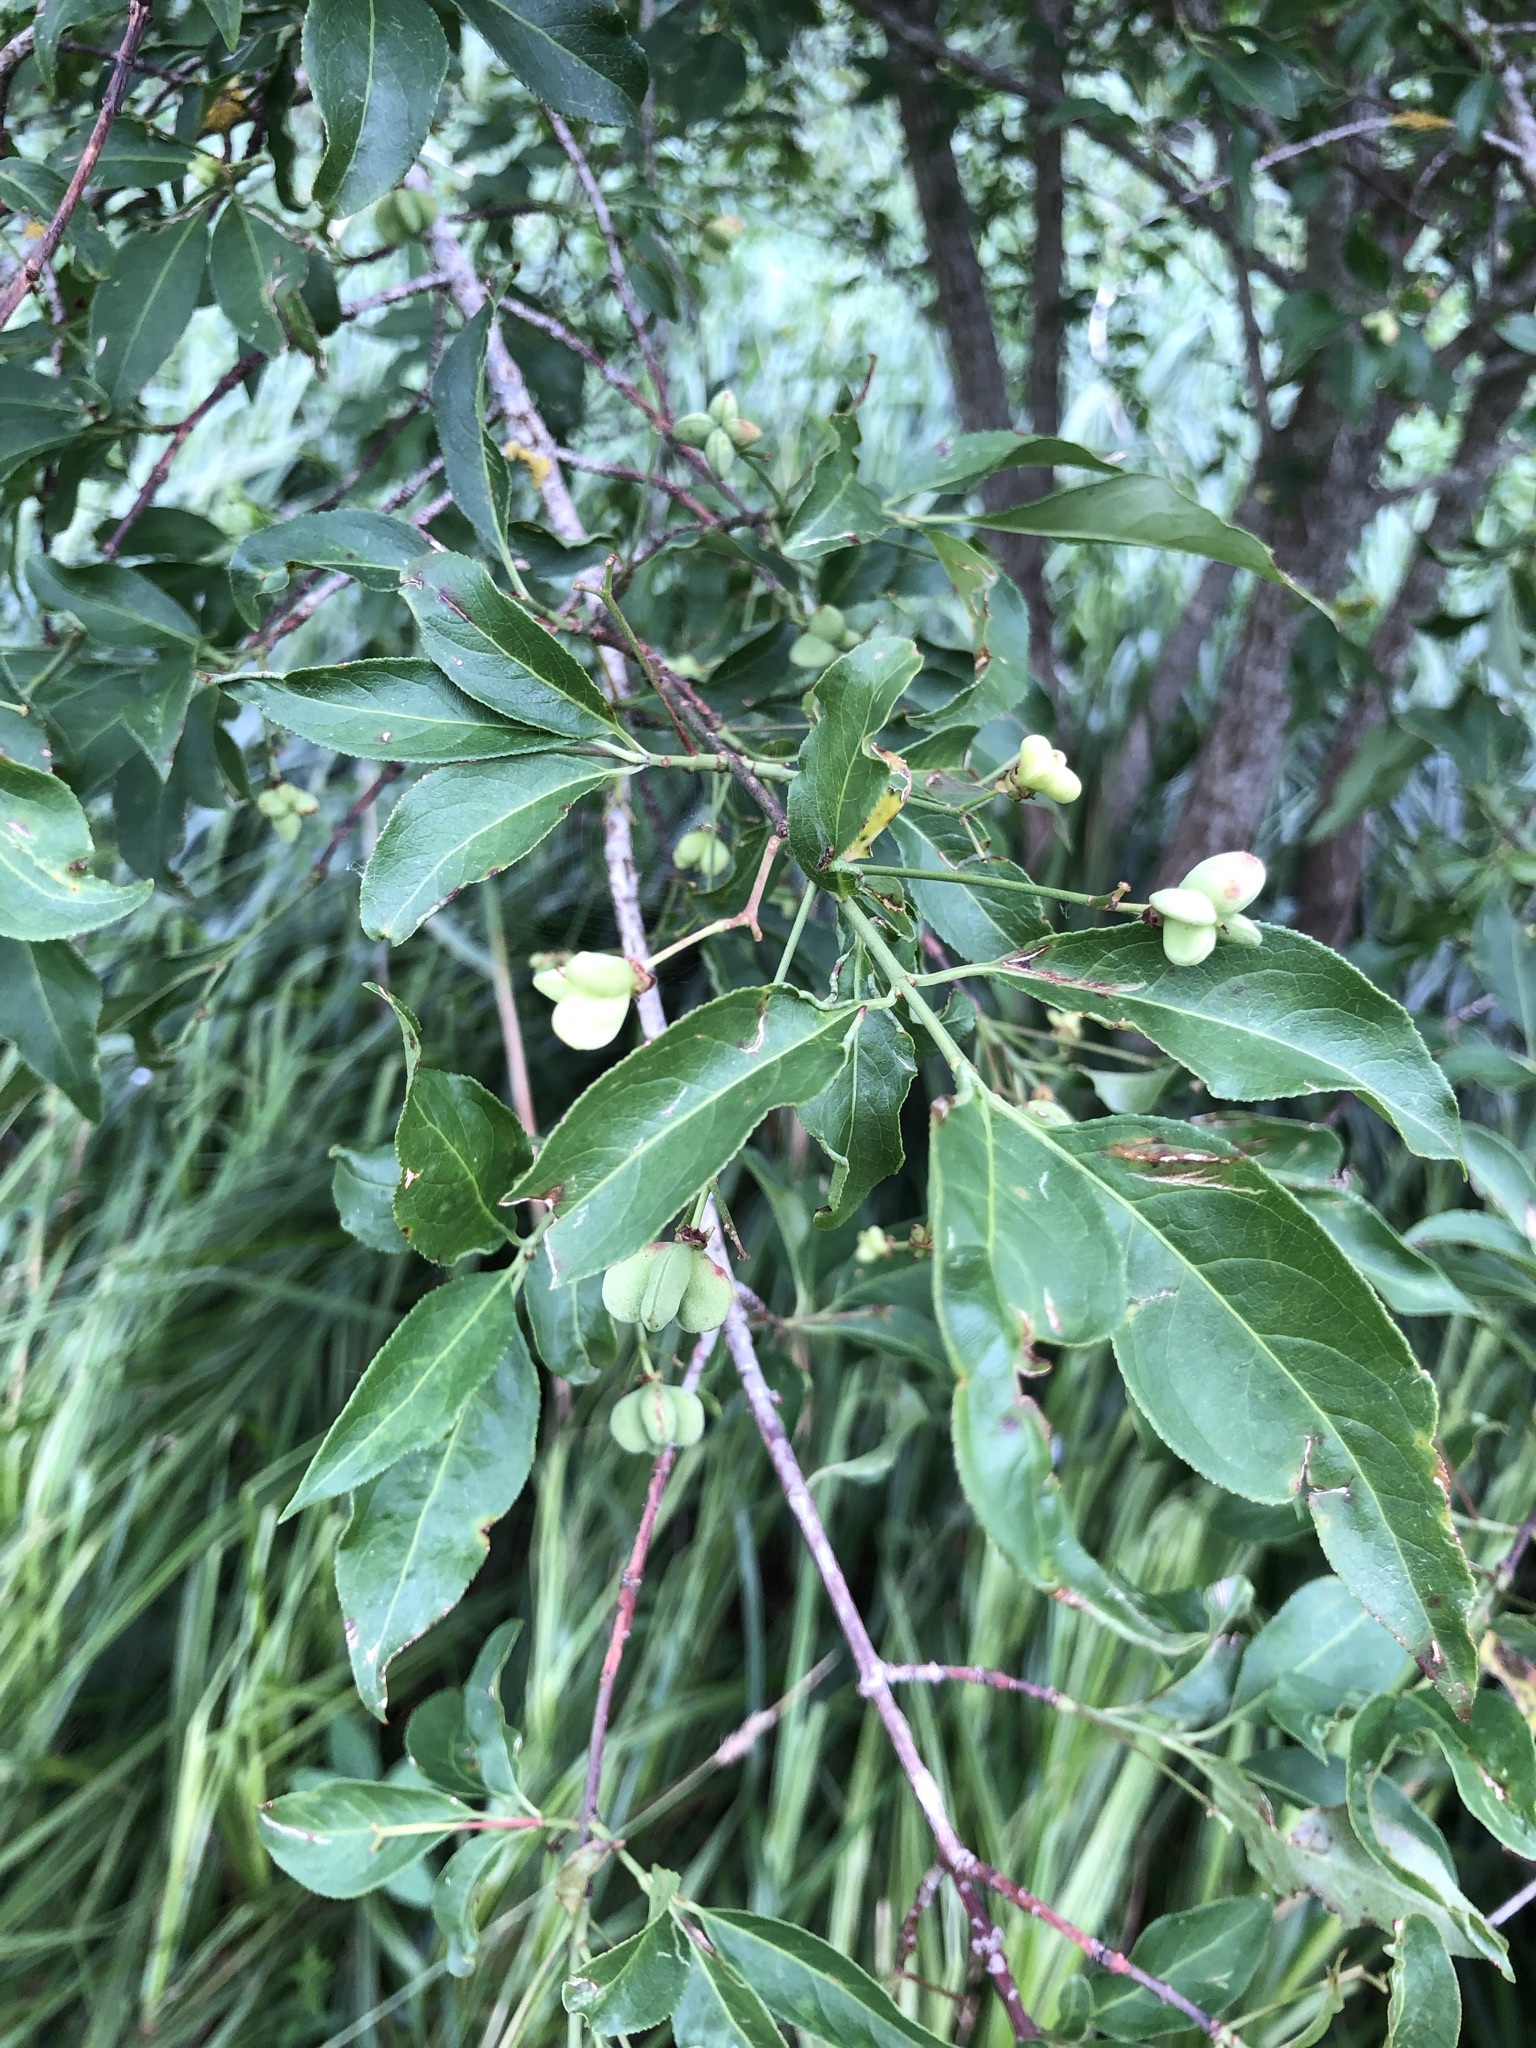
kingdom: Plantae
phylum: Tracheophyta
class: Magnoliopsida
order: Celastrales
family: Celastraceae
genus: Euonymus
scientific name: Euonymus europaeus
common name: Spindle
